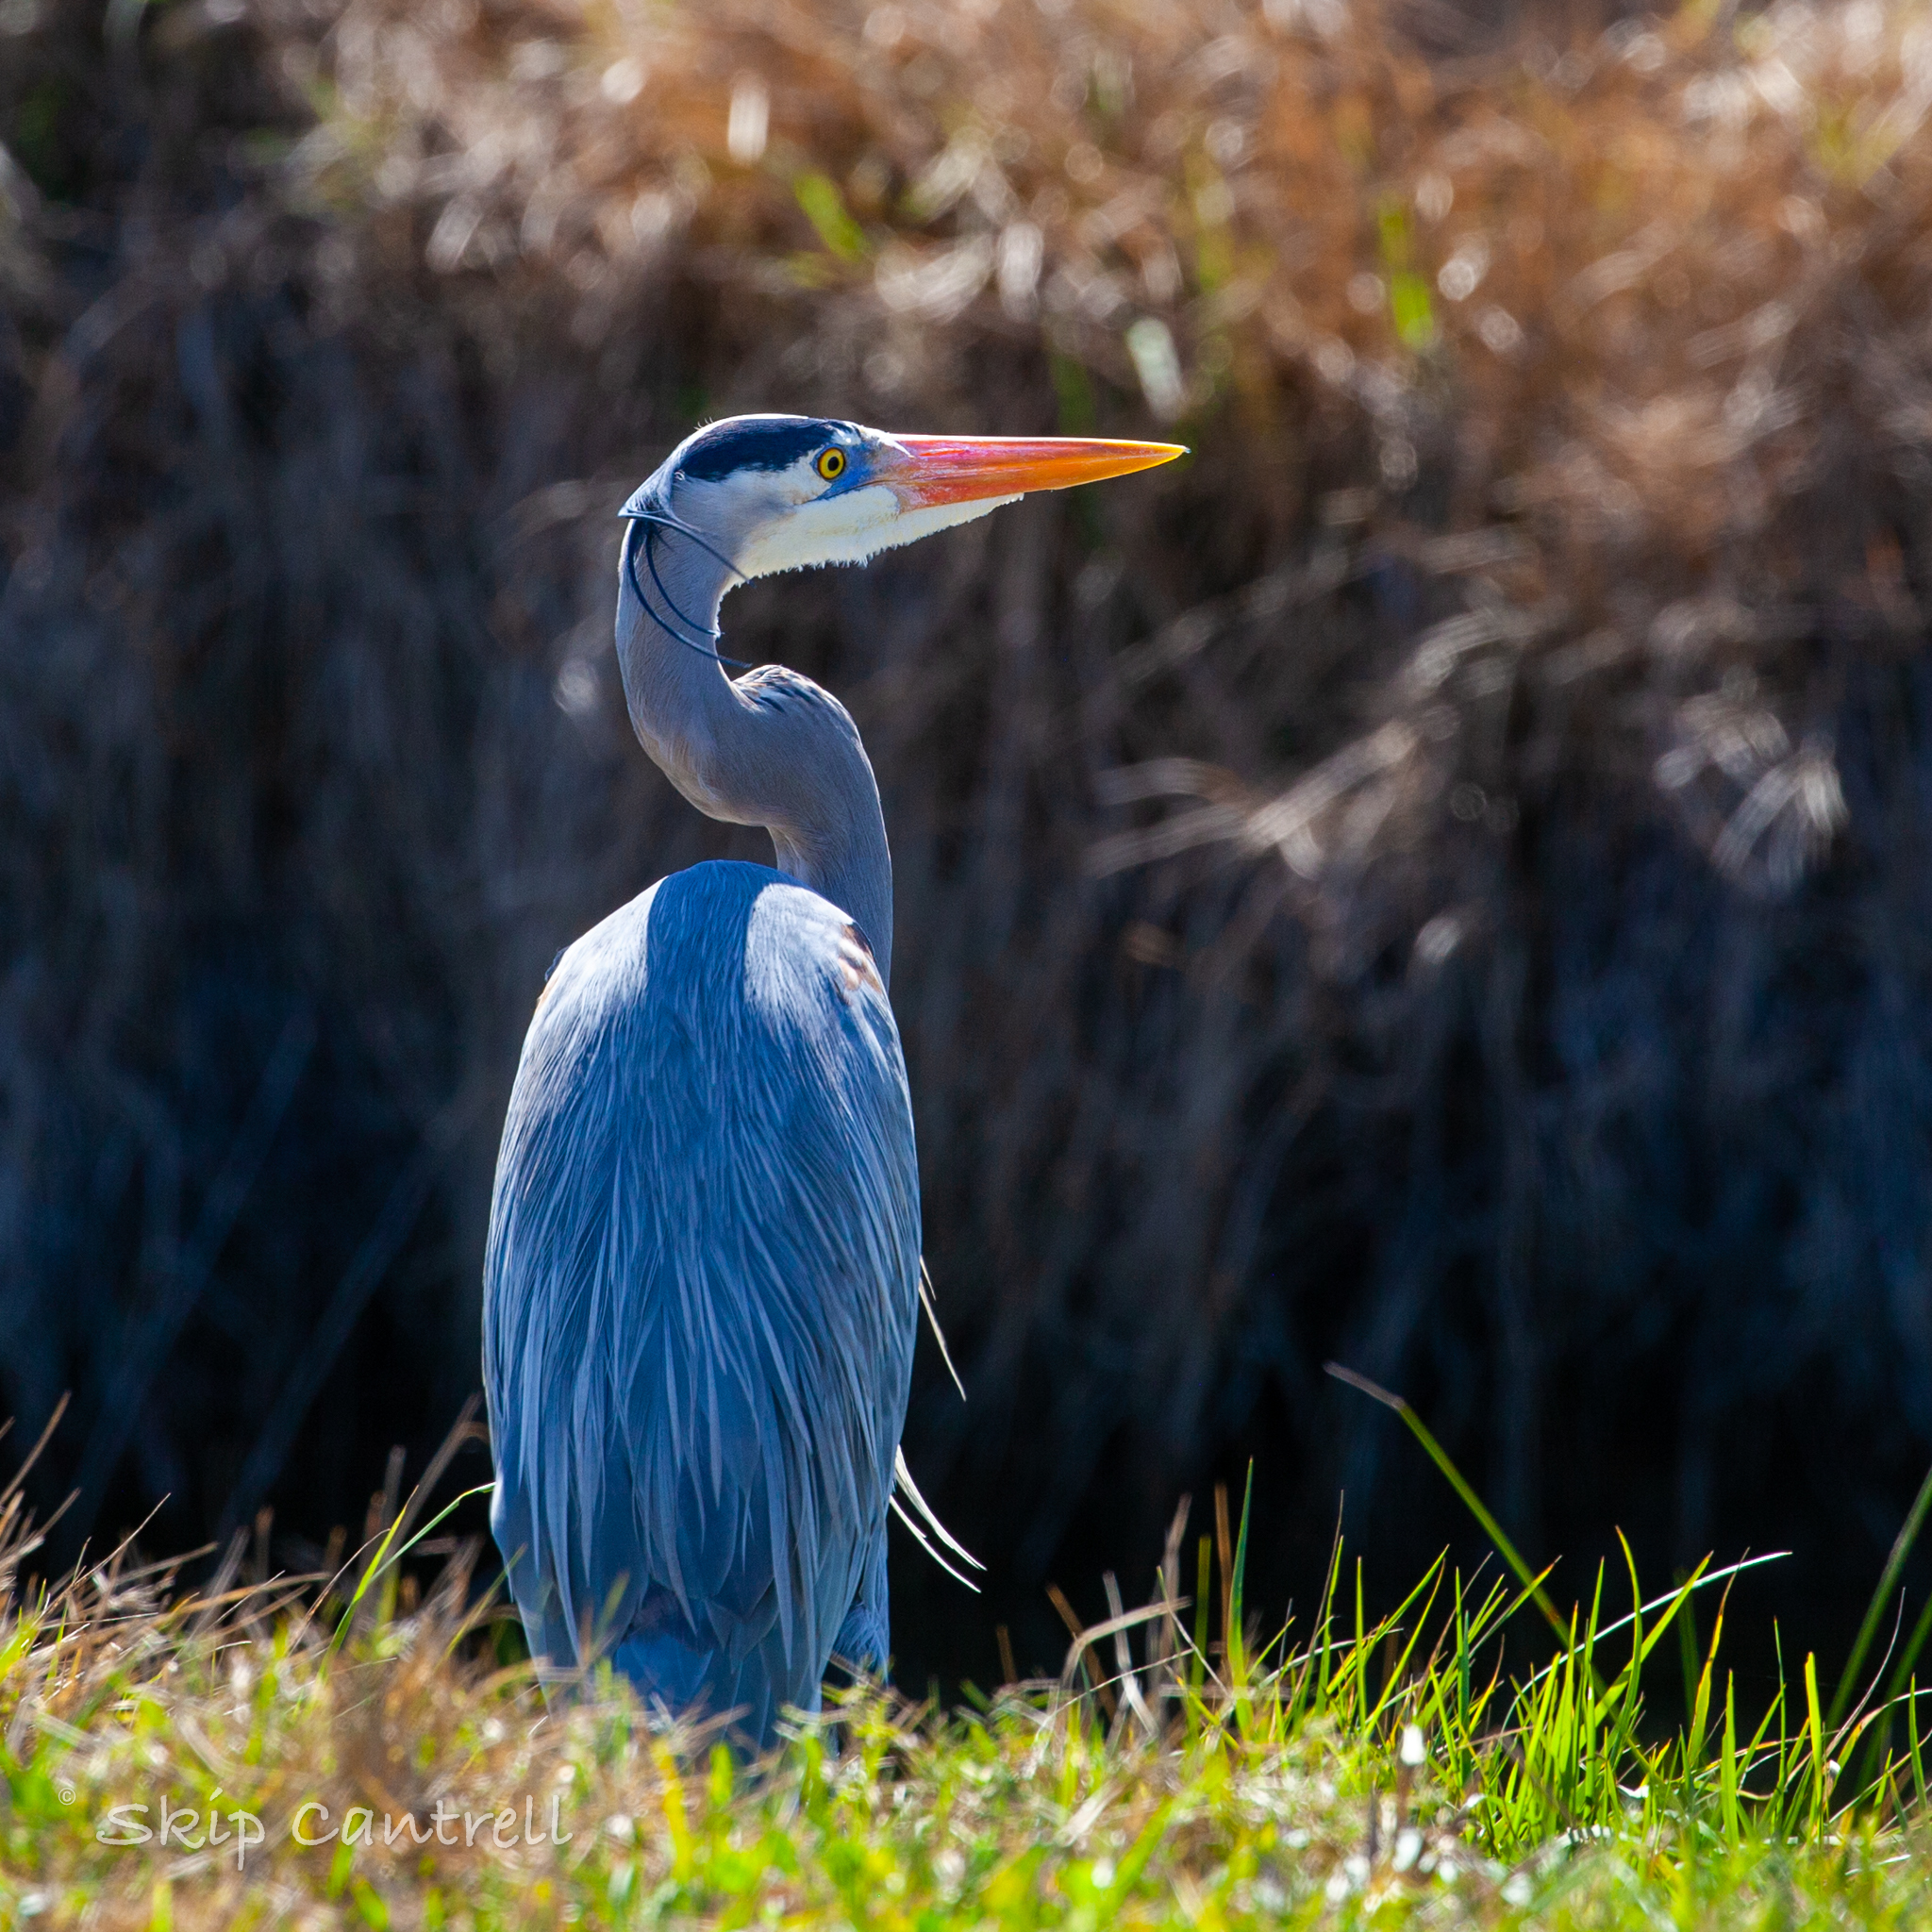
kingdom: Animalia
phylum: Chordata
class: Aves
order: Pelecaniformes
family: Ardeidae
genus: Ardea
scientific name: Ardea herodias
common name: Great blue heron
